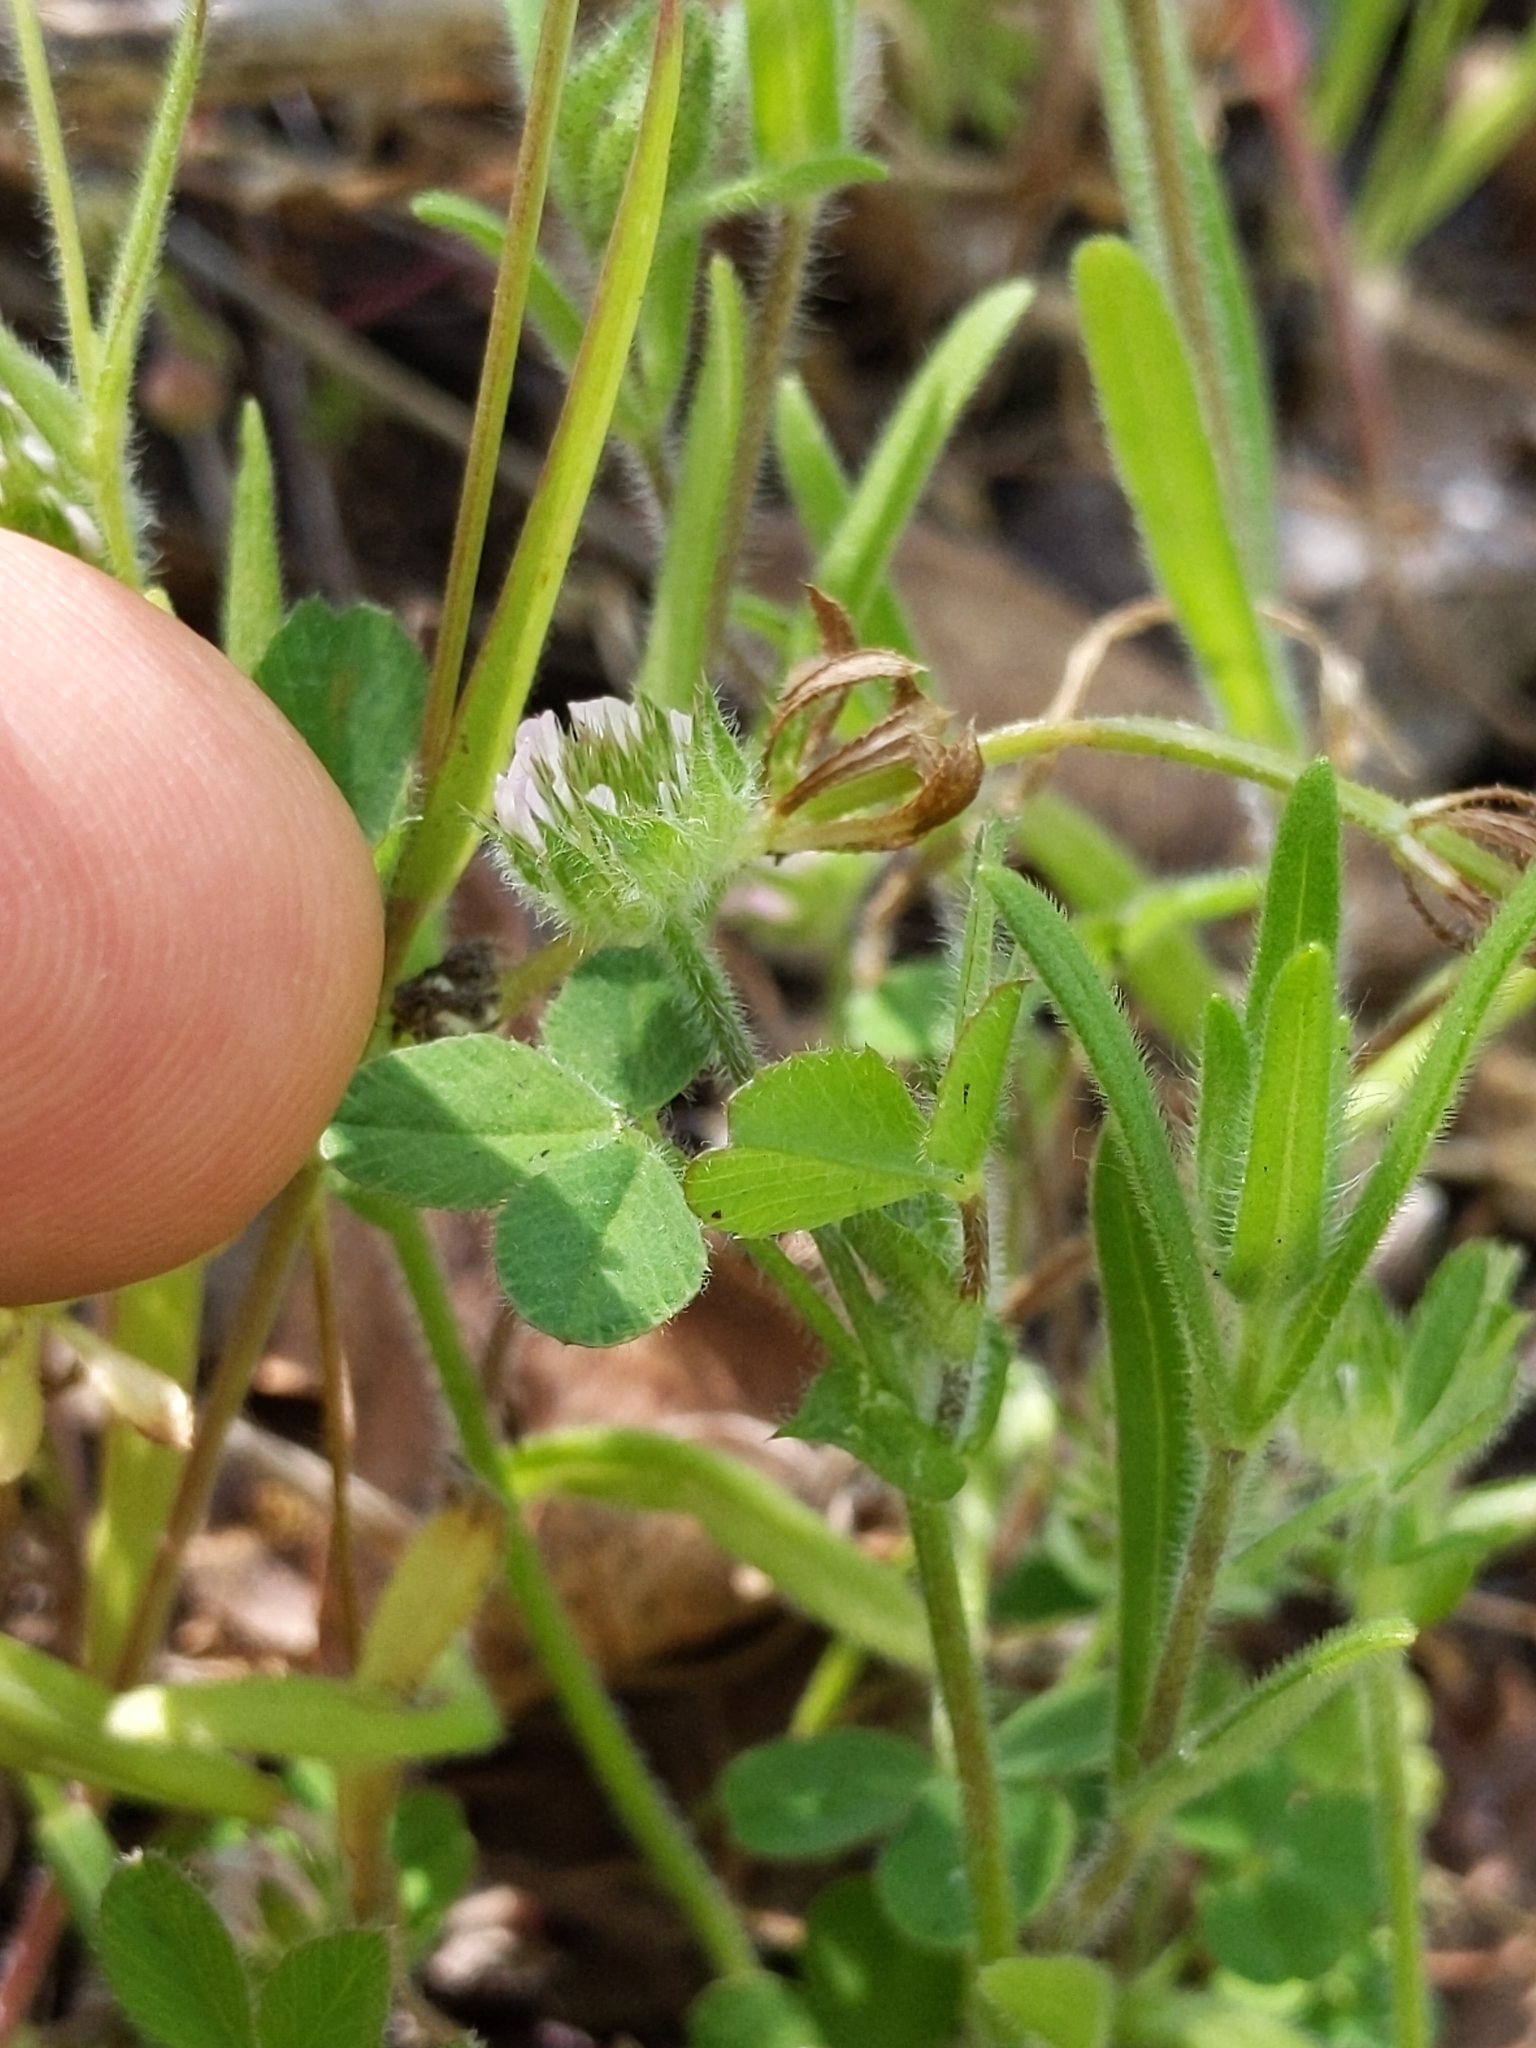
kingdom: Plantae
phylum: Tracheophyta
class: Magnoliopsida
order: Fabales
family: Fabaceae
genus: Trifolium
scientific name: Trifolium microcephalum
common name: Maiden clover
